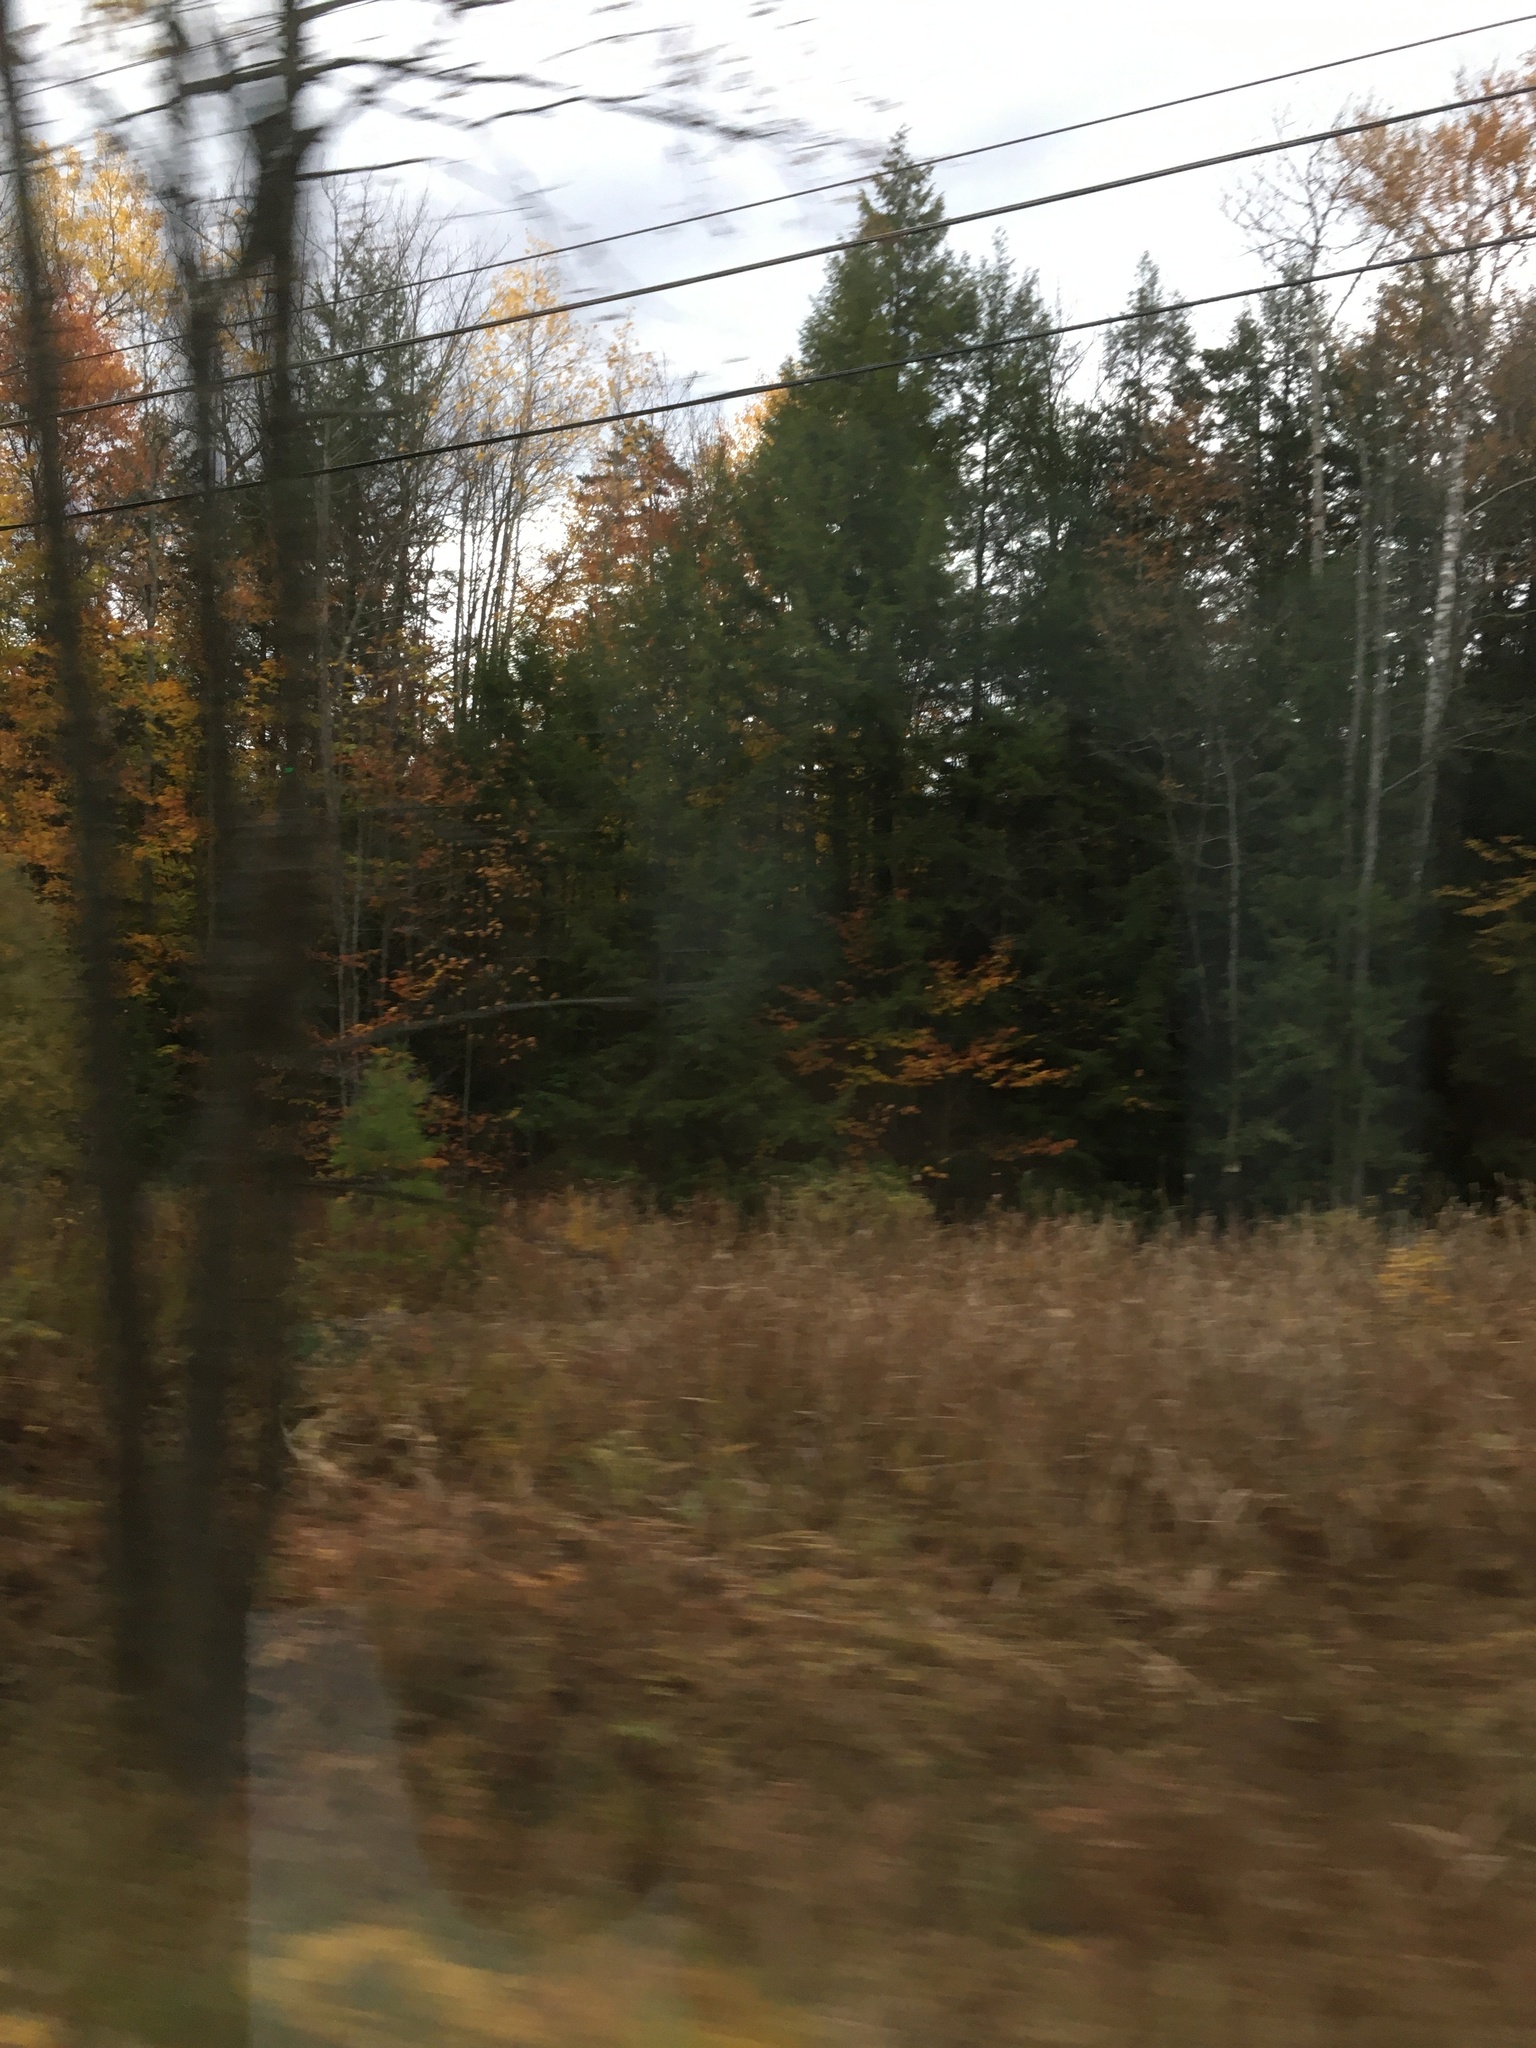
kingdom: Plantae
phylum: Tracheophyta
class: Pinopsida
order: Pinales
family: Pinaceae
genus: Tsuga
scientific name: Tsuga canadensis
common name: Eastern hemlock
